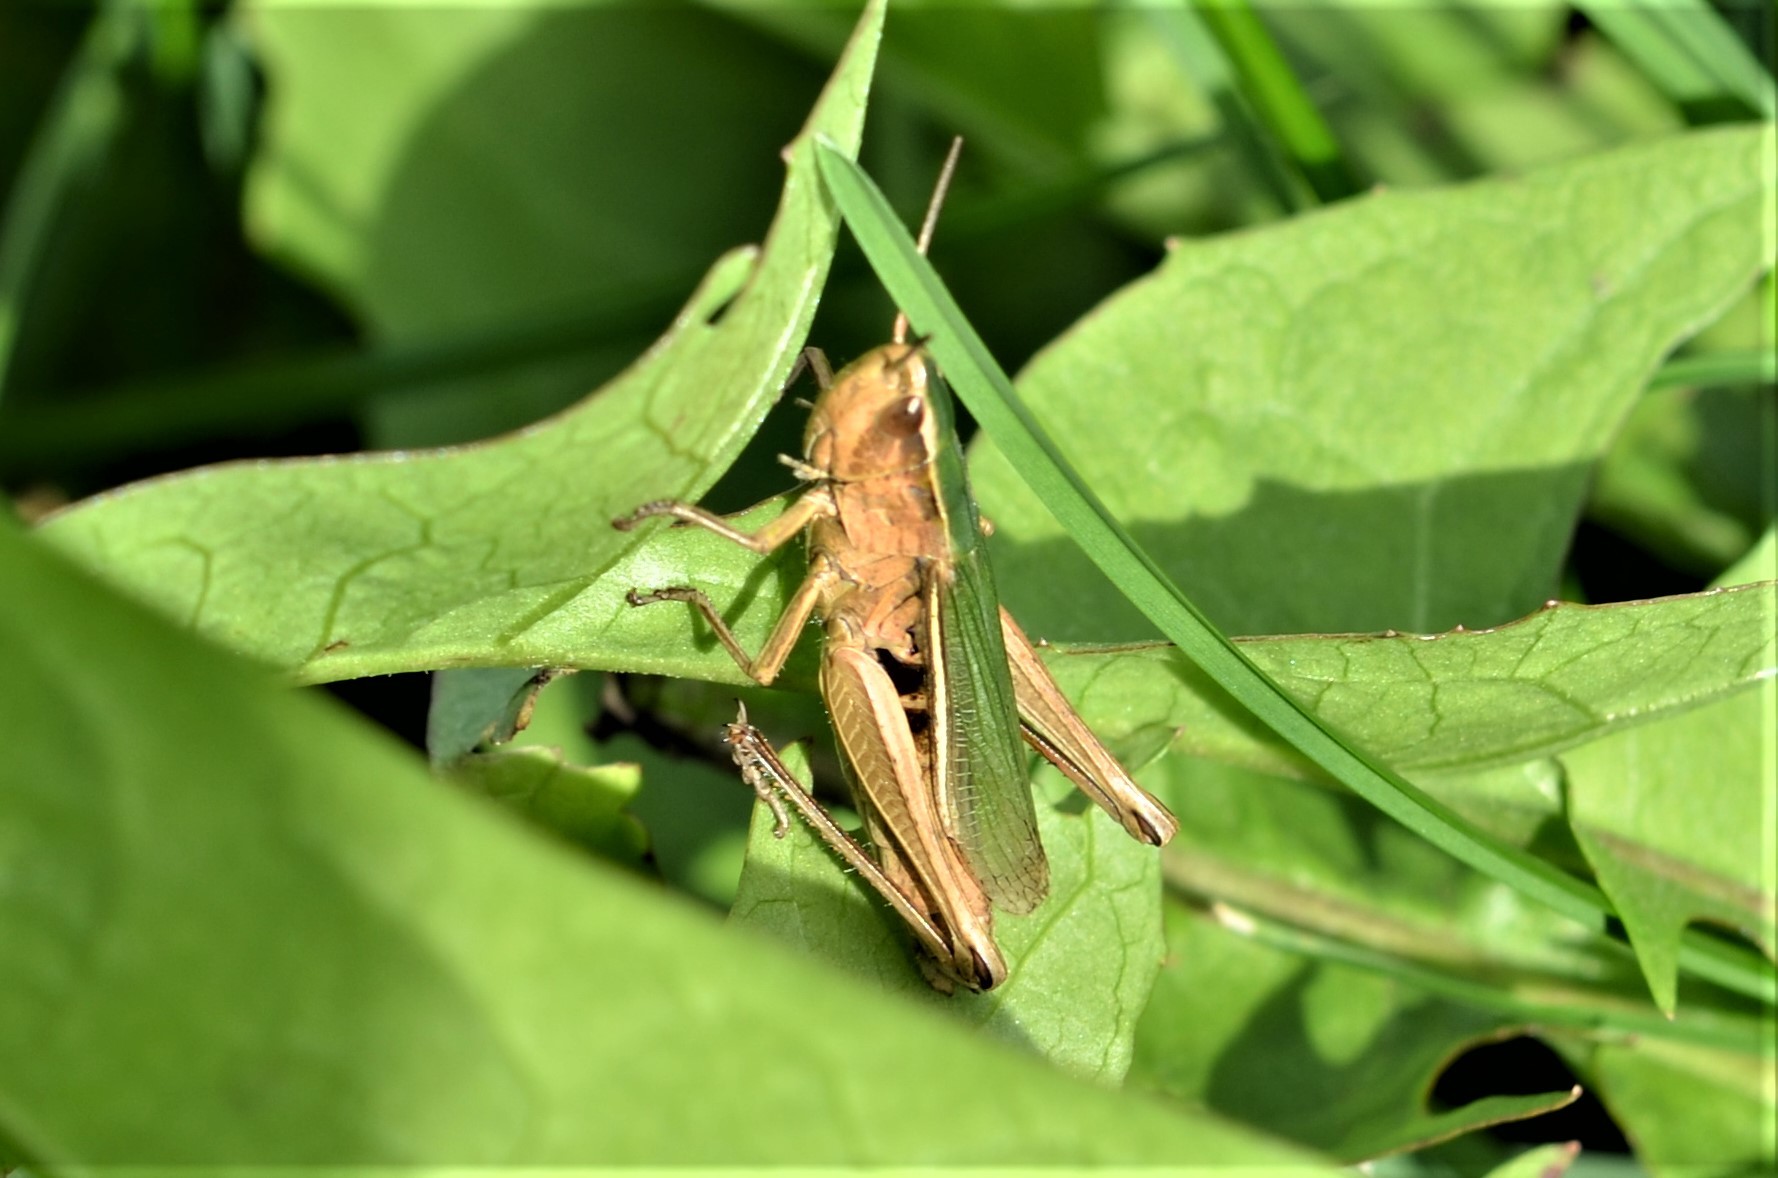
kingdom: Animalia
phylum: Arthropoda
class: Insecta
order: Orthoptera
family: Acrididae
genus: Chorthippus
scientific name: Chorthippus albomarginatus
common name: Lesser marsh grasshopper
